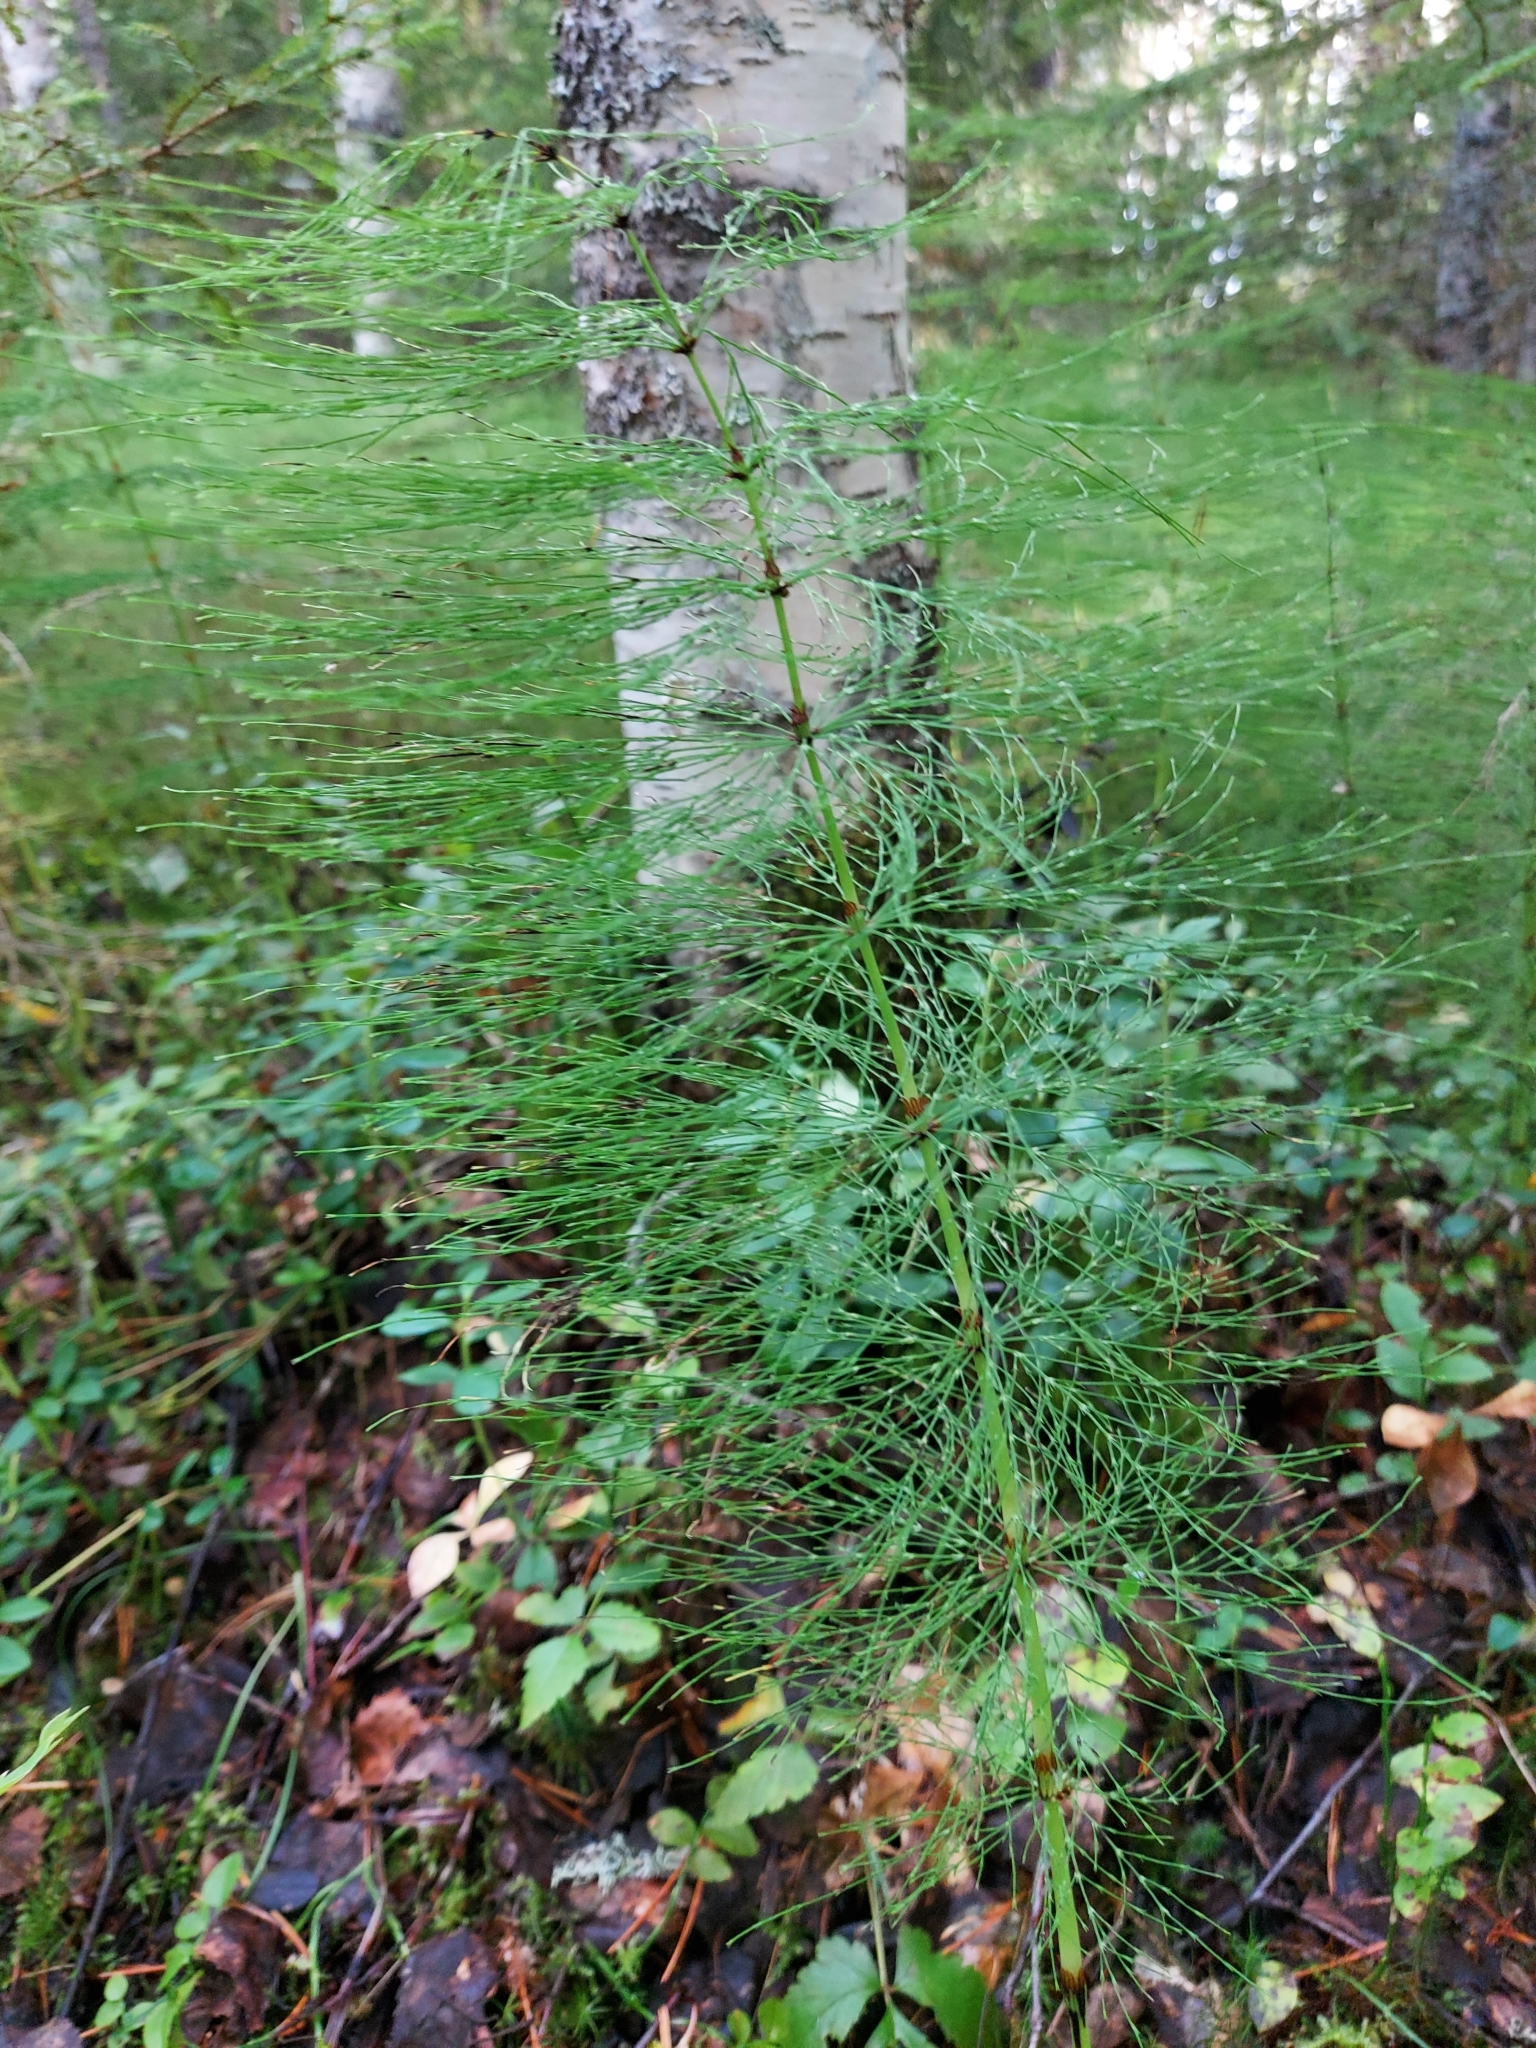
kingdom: Plantae
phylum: Tracheophyta
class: Polypodiopsida
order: Equisetales
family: Equisetaceae
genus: Equisetum
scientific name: Equisetum sylvaticum
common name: Wood horsetail
